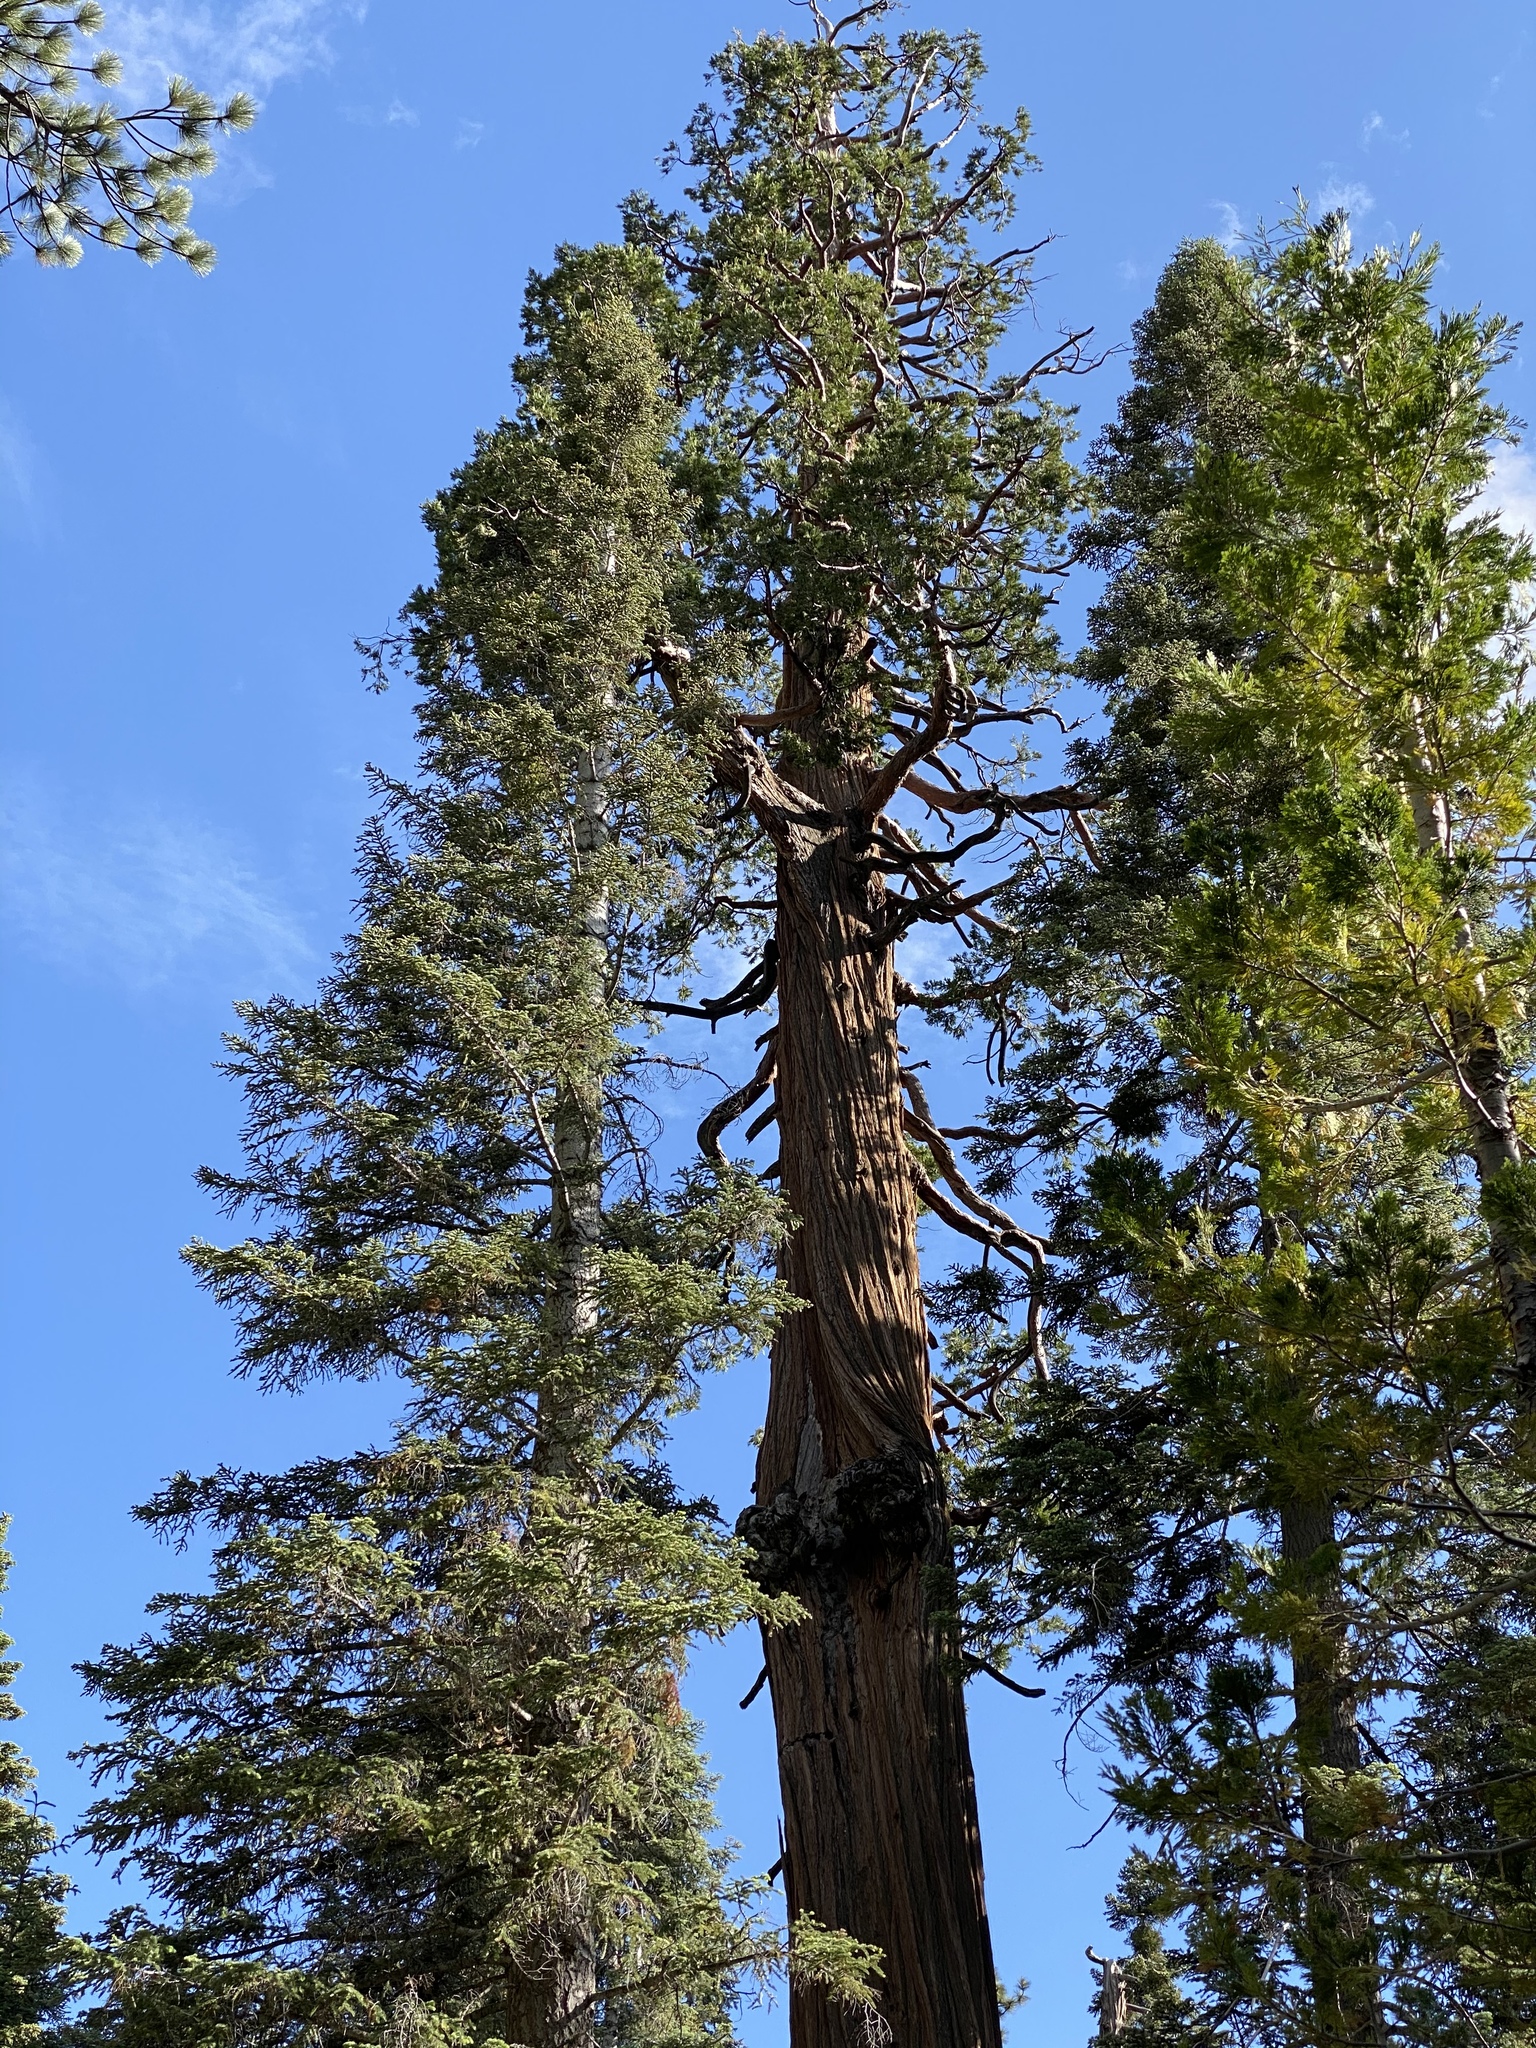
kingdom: Plantae
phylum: Tracheophyta
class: Pinopsida
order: Pinales
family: Cupressaceae
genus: Calocedrus
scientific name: Calocedrus decurrens
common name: Californian incense-cedar
